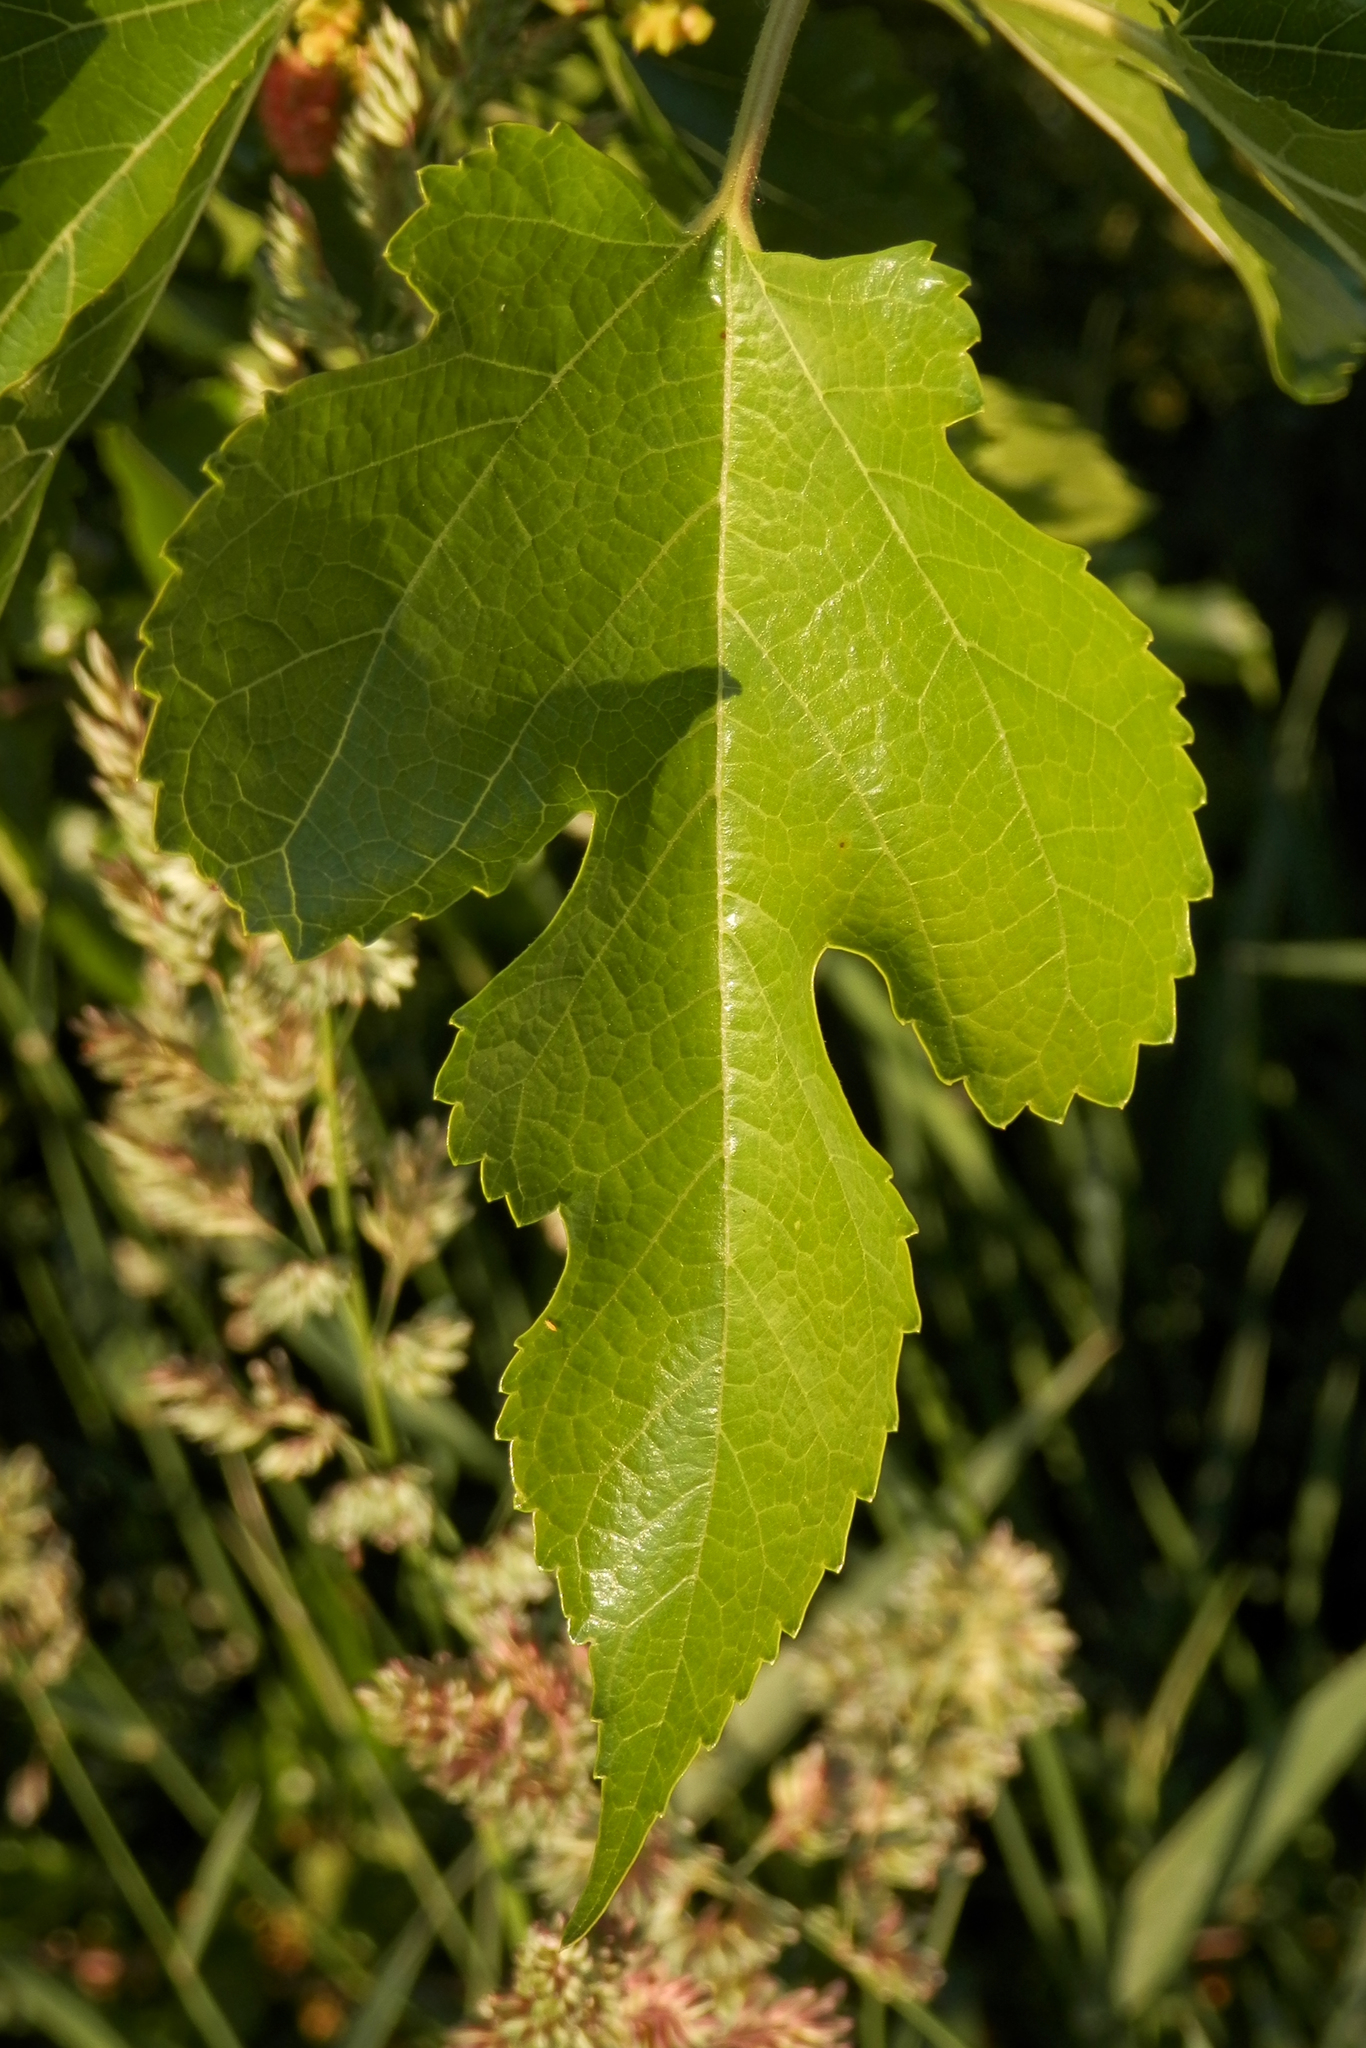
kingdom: Plantae
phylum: Tracheophyta
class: Magnoliopsida
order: Rosales
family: Moraceae
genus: Morus
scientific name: Morus alba
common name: White mulberry
